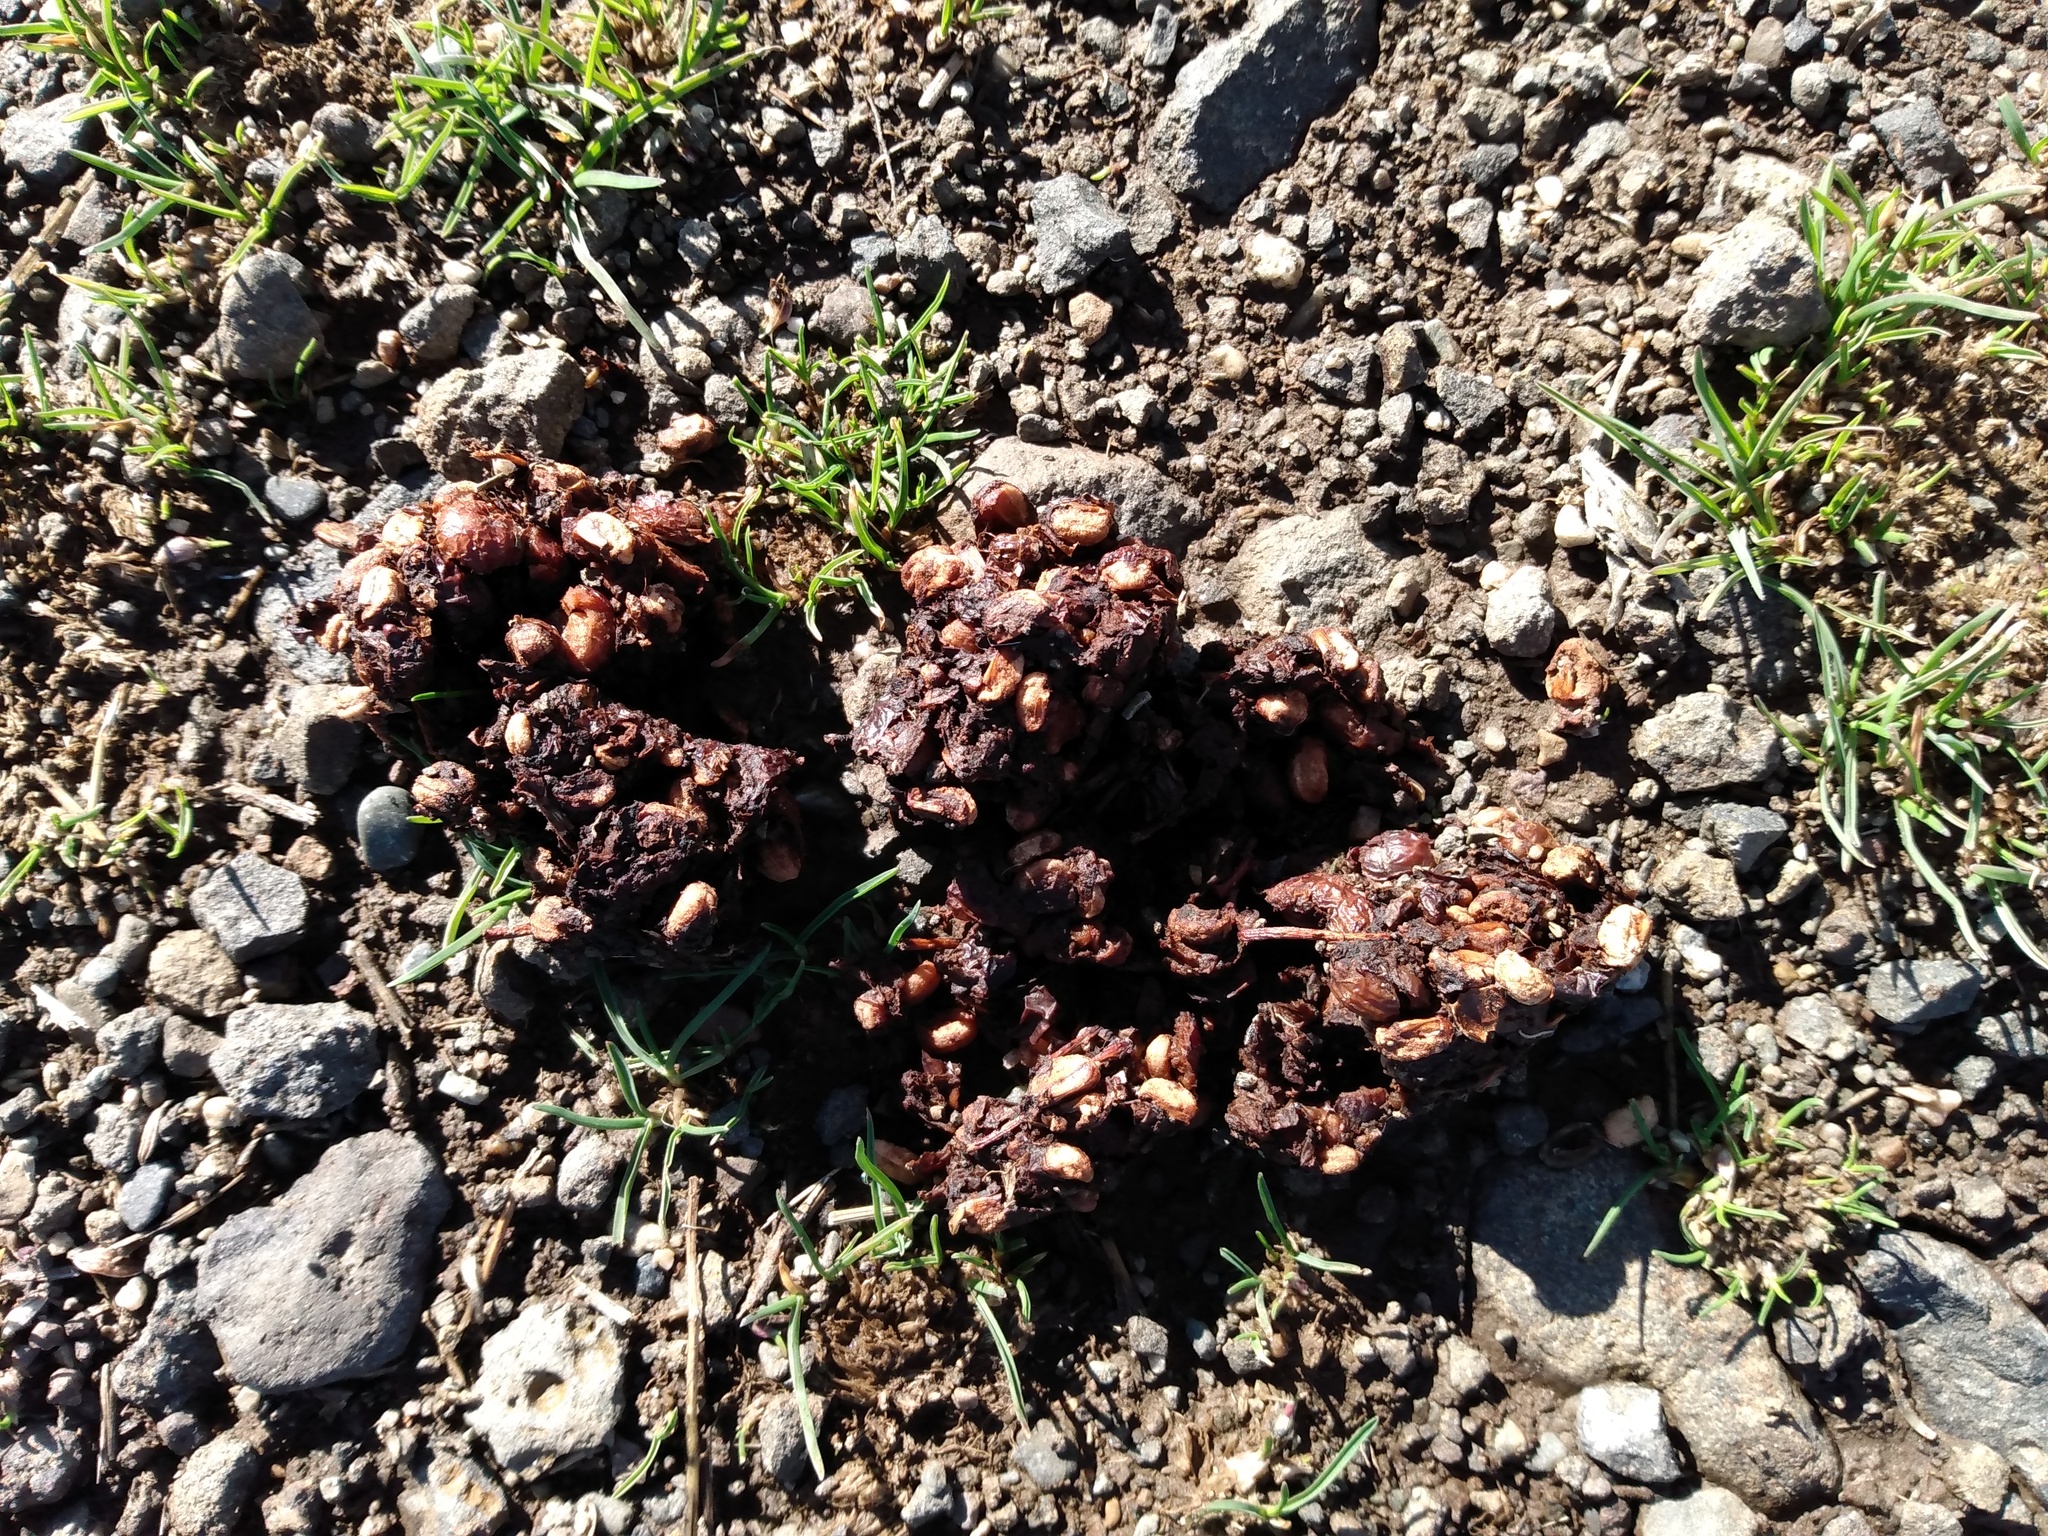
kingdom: Animalia
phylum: Chordata
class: Mammalia
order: Carnivora
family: Ursidae
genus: Ursus
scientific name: Ursus americanus
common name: American black bear
